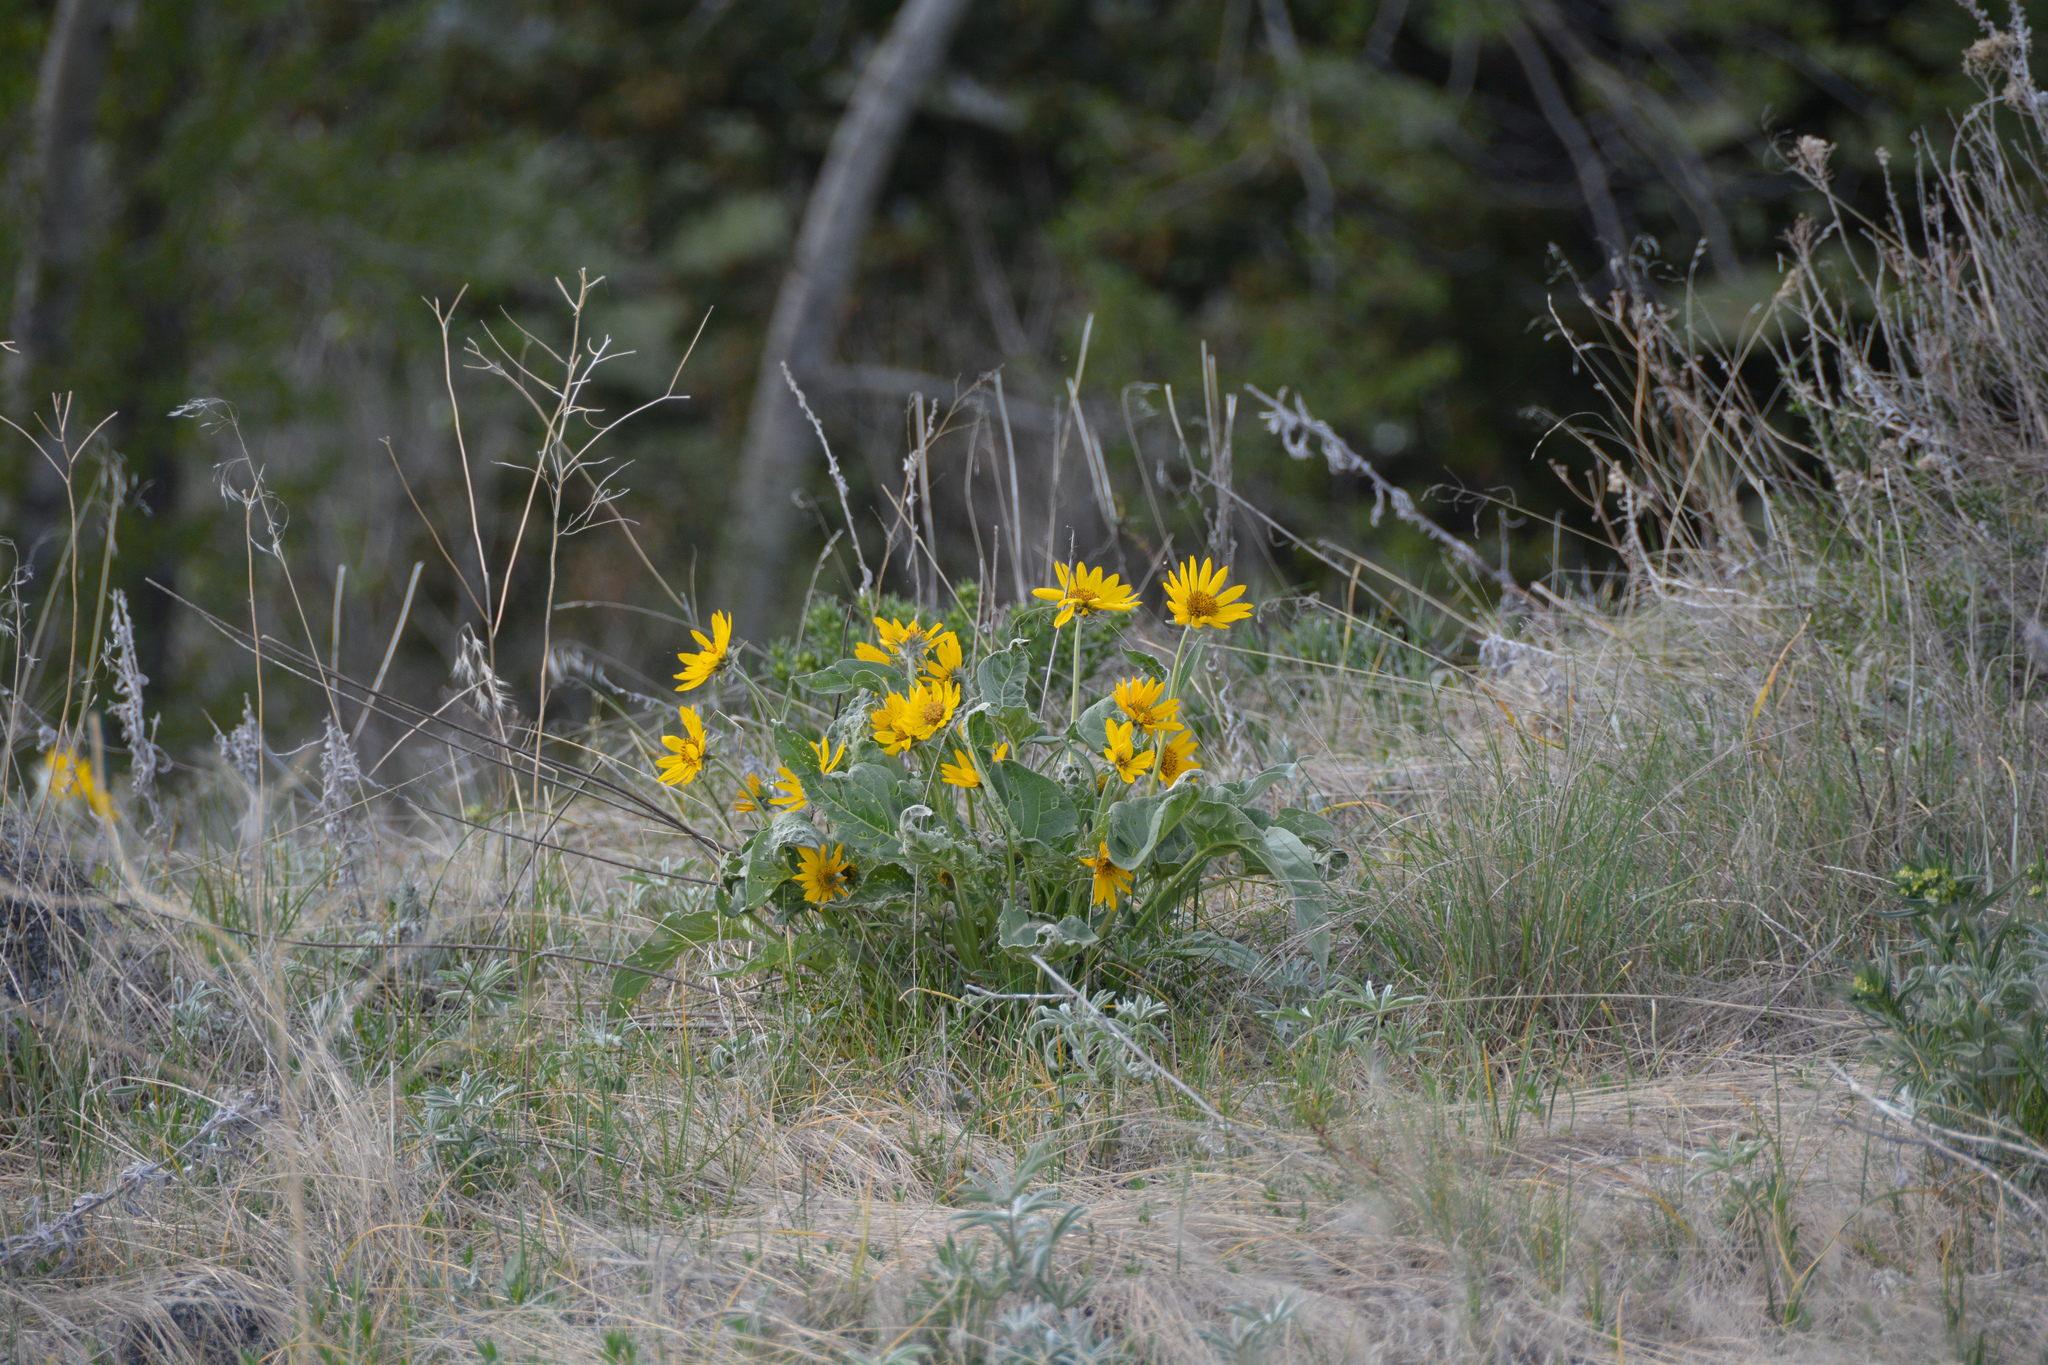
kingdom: Plantae
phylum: Tracheophyta
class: Magnoliopsida
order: Asterales
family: Asteraceae
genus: Wyethia
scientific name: Wyethia sagittata
